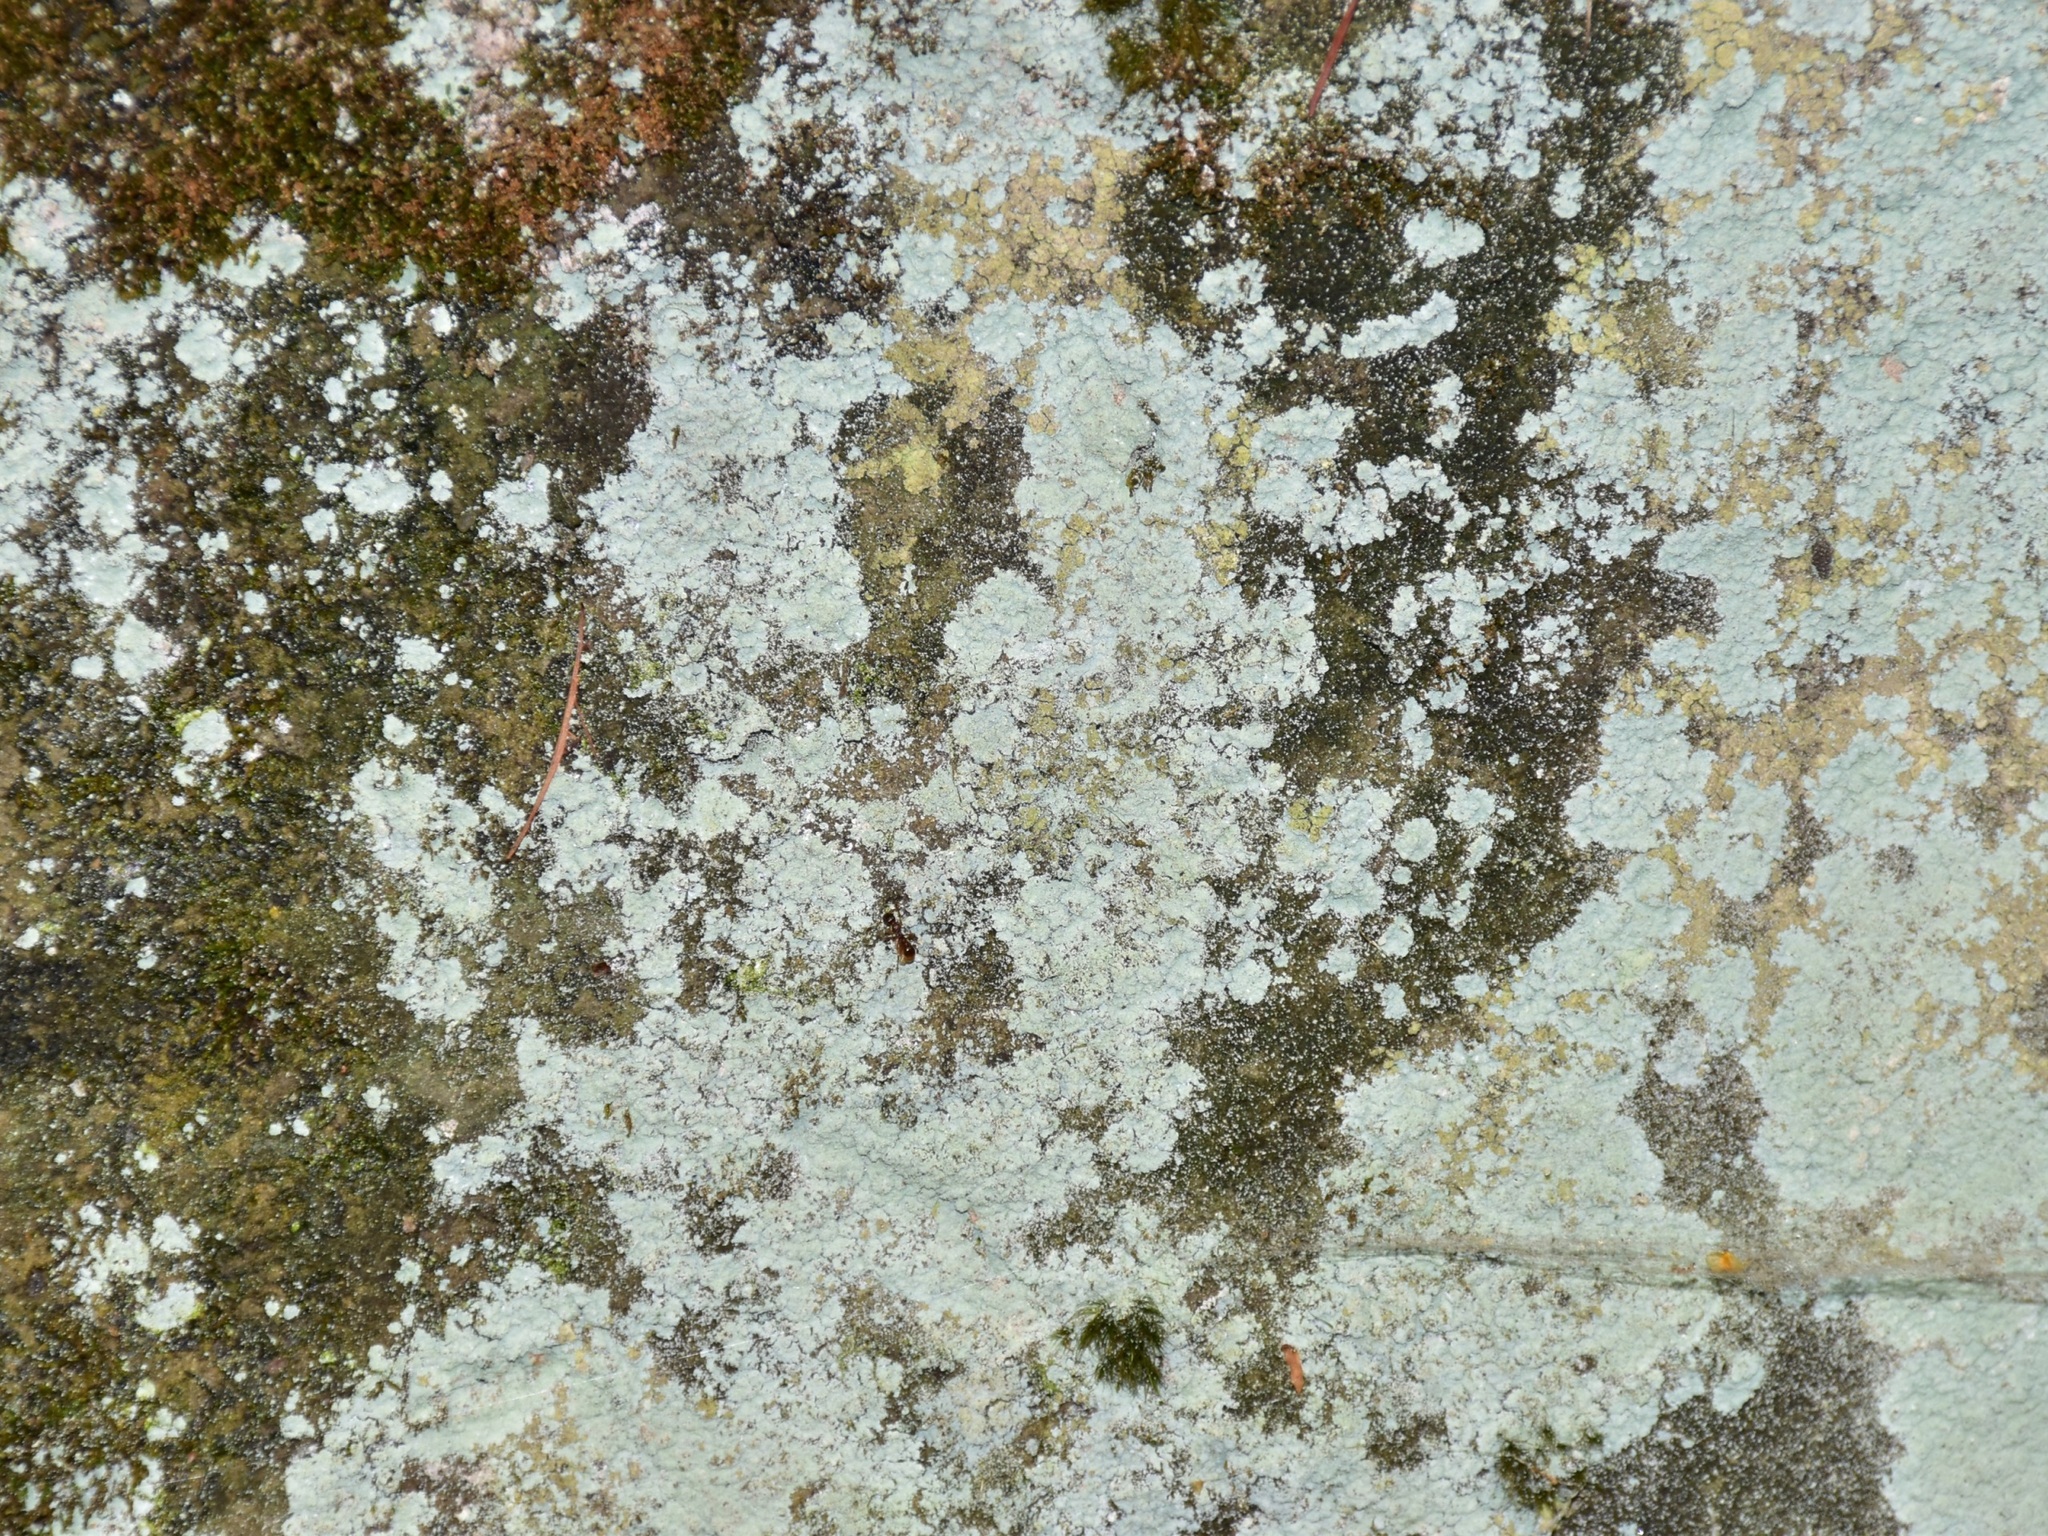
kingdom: Fungi
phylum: Ascomycota
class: Lecanoromycetes
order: Lecanorales
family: Stereocaulaceae
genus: Lepraria
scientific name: Lepraria
